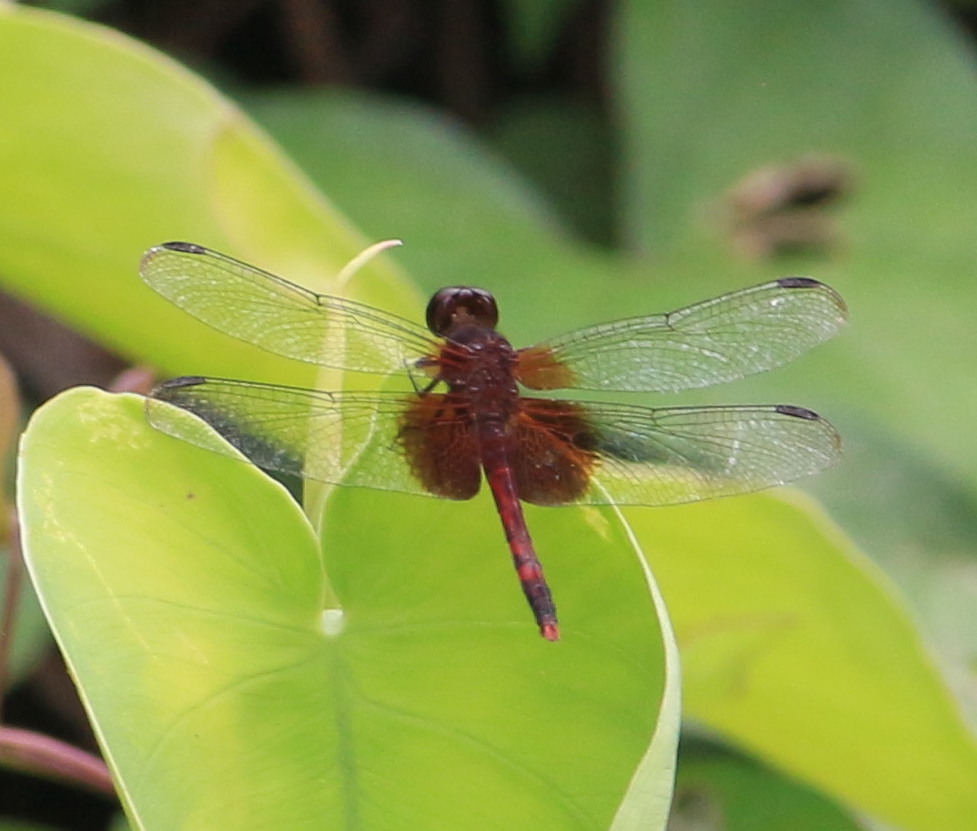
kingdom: Animalia
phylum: Arthropoda
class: Insecta
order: Odonata
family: Libellulidae
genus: Erythrodiplax
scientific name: Erythrodiplax fervida
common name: Red-mantled dragonlet
